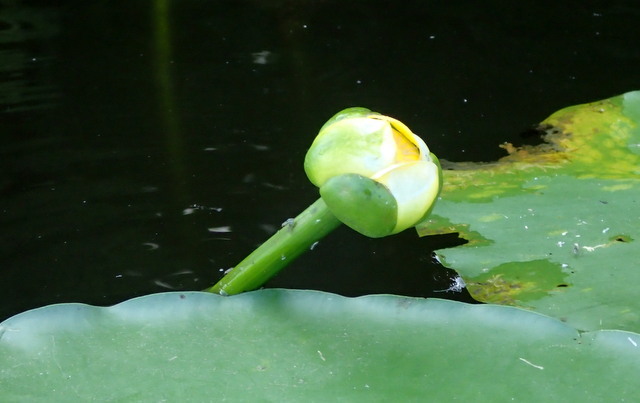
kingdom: Plantae
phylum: Tracheophyta
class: Magnoliopsida
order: Nymphaeales
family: Nymphaeaceae
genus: Nuphar
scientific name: Nuphar advena
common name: Spatter-dock
